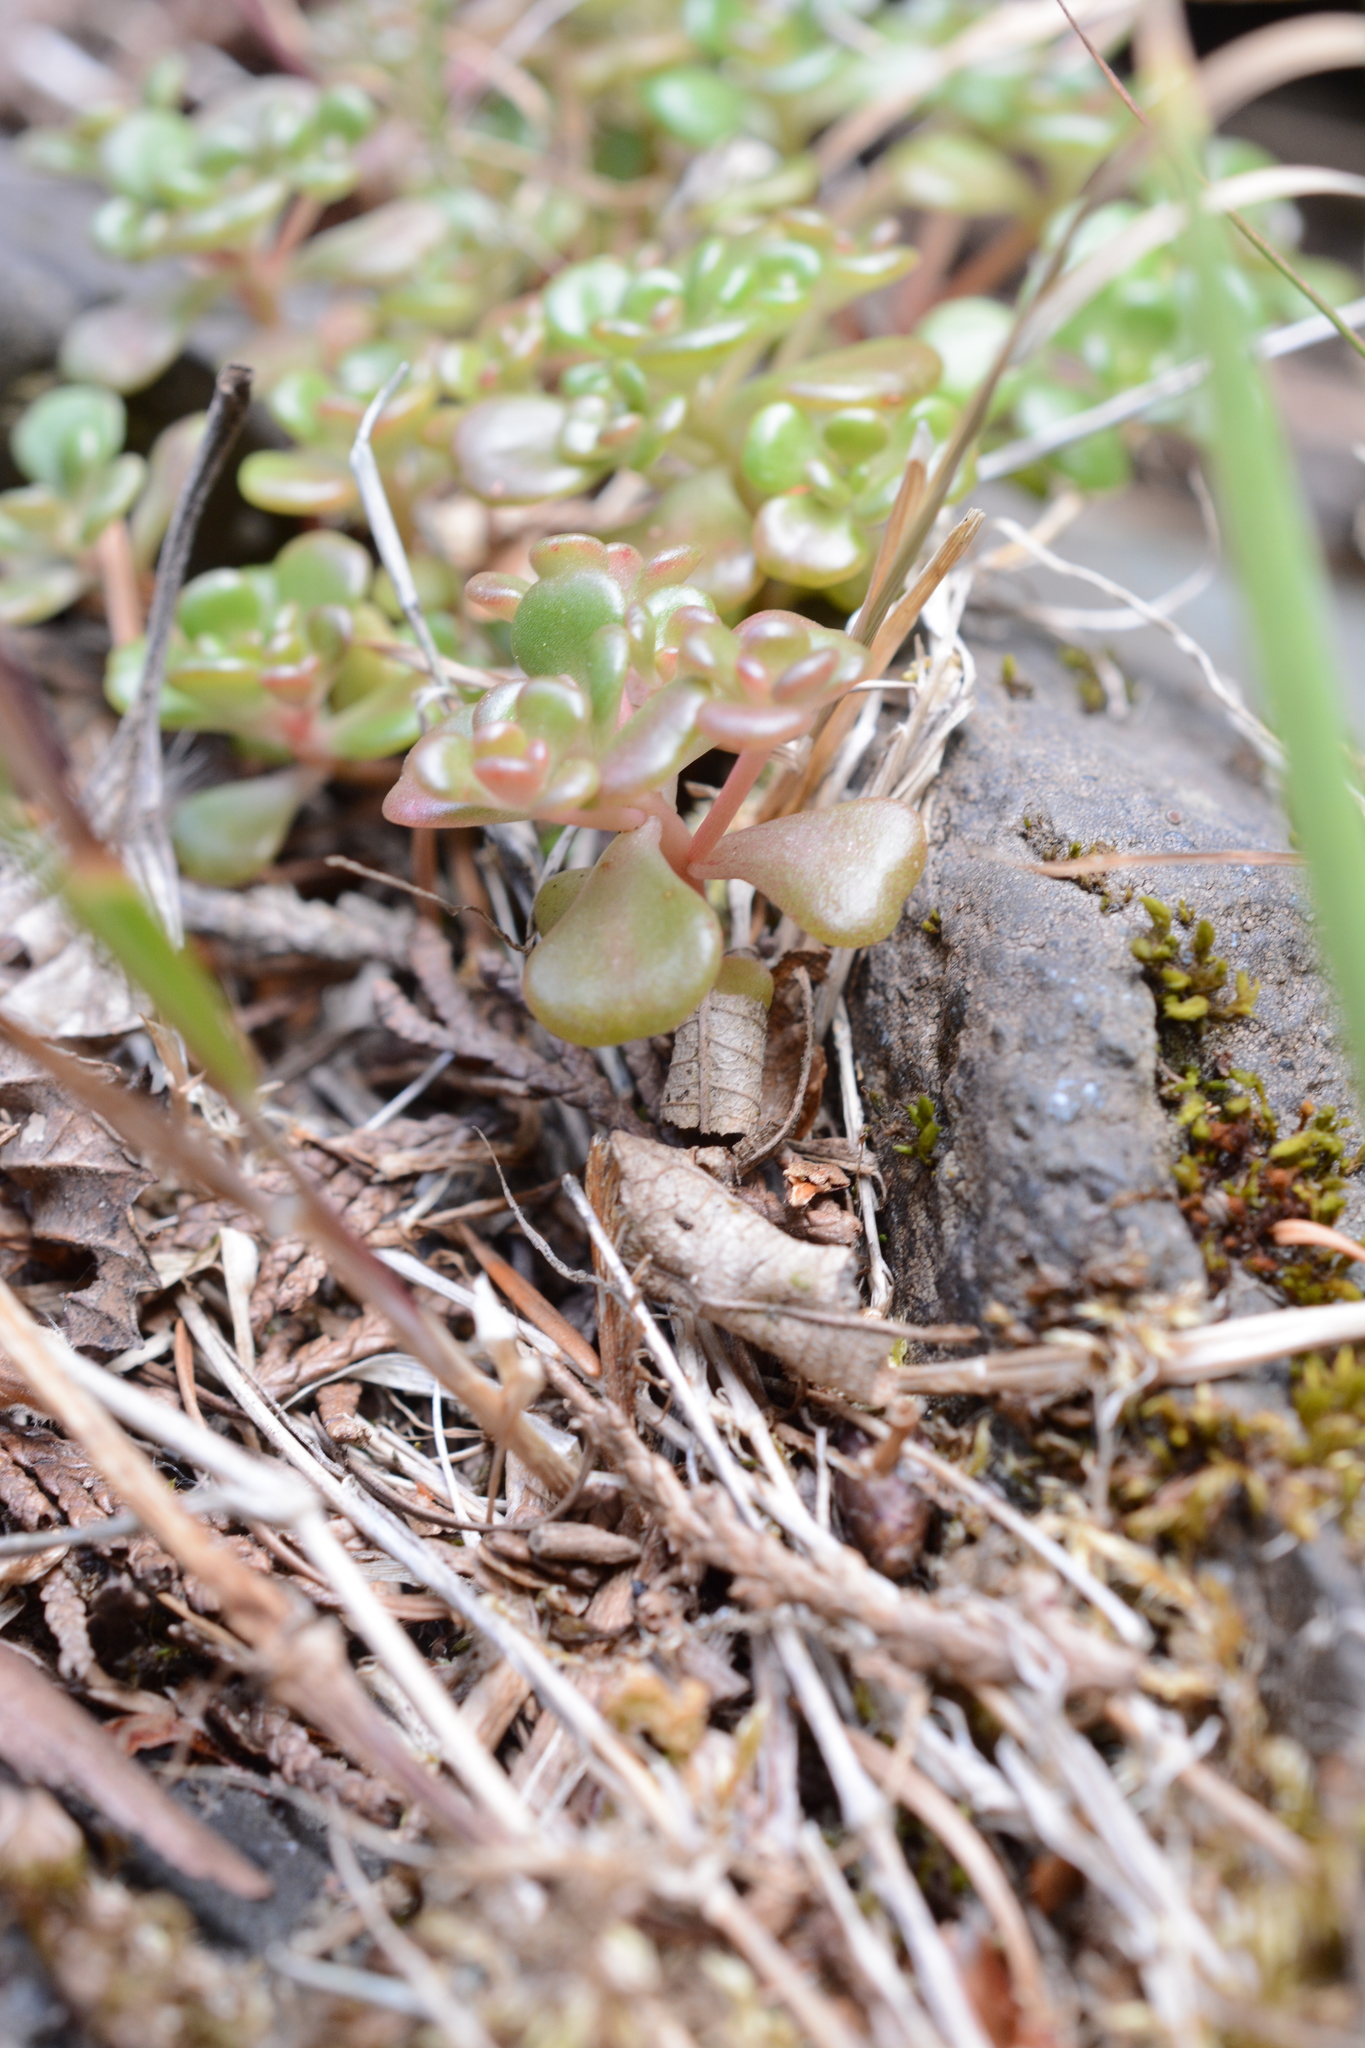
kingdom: Plantae
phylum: Tracheophyta
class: Magnoliopsida
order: Saxifragales
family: Crassulaceae
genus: Sedum
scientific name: Sedum oreganum
